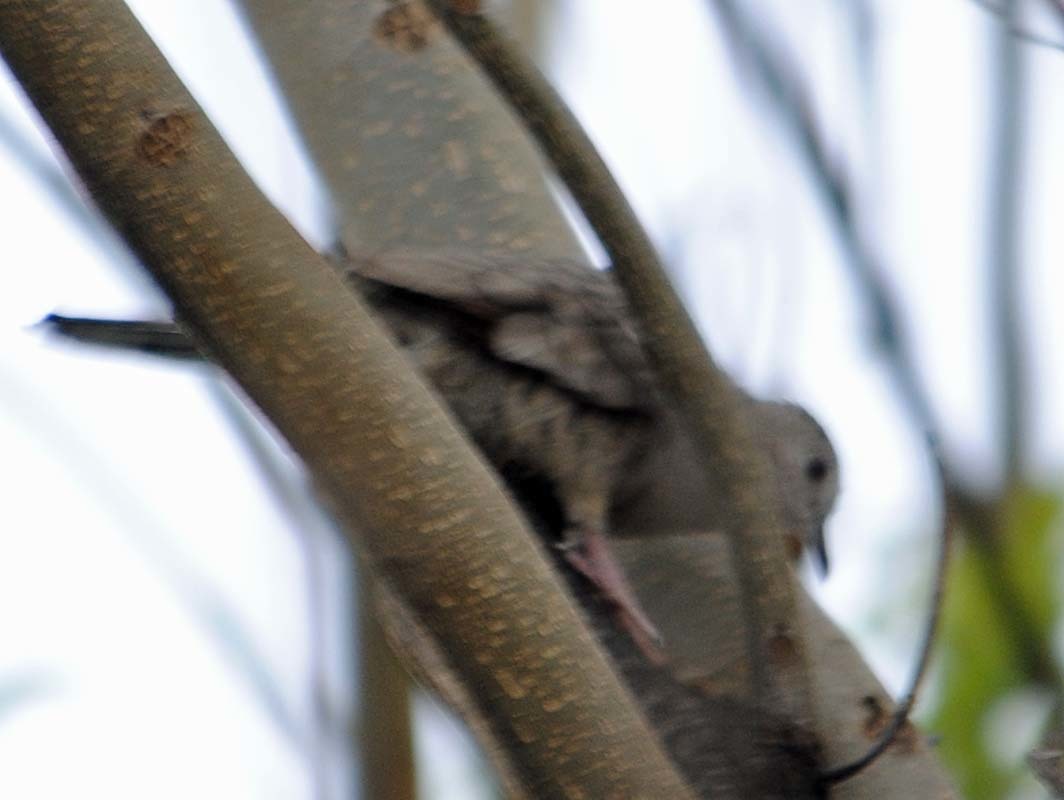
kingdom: Animalia
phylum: Chordata
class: Aves
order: Columbiformes
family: Columbidae
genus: Columbina
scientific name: Columbina inca
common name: Inca dove
